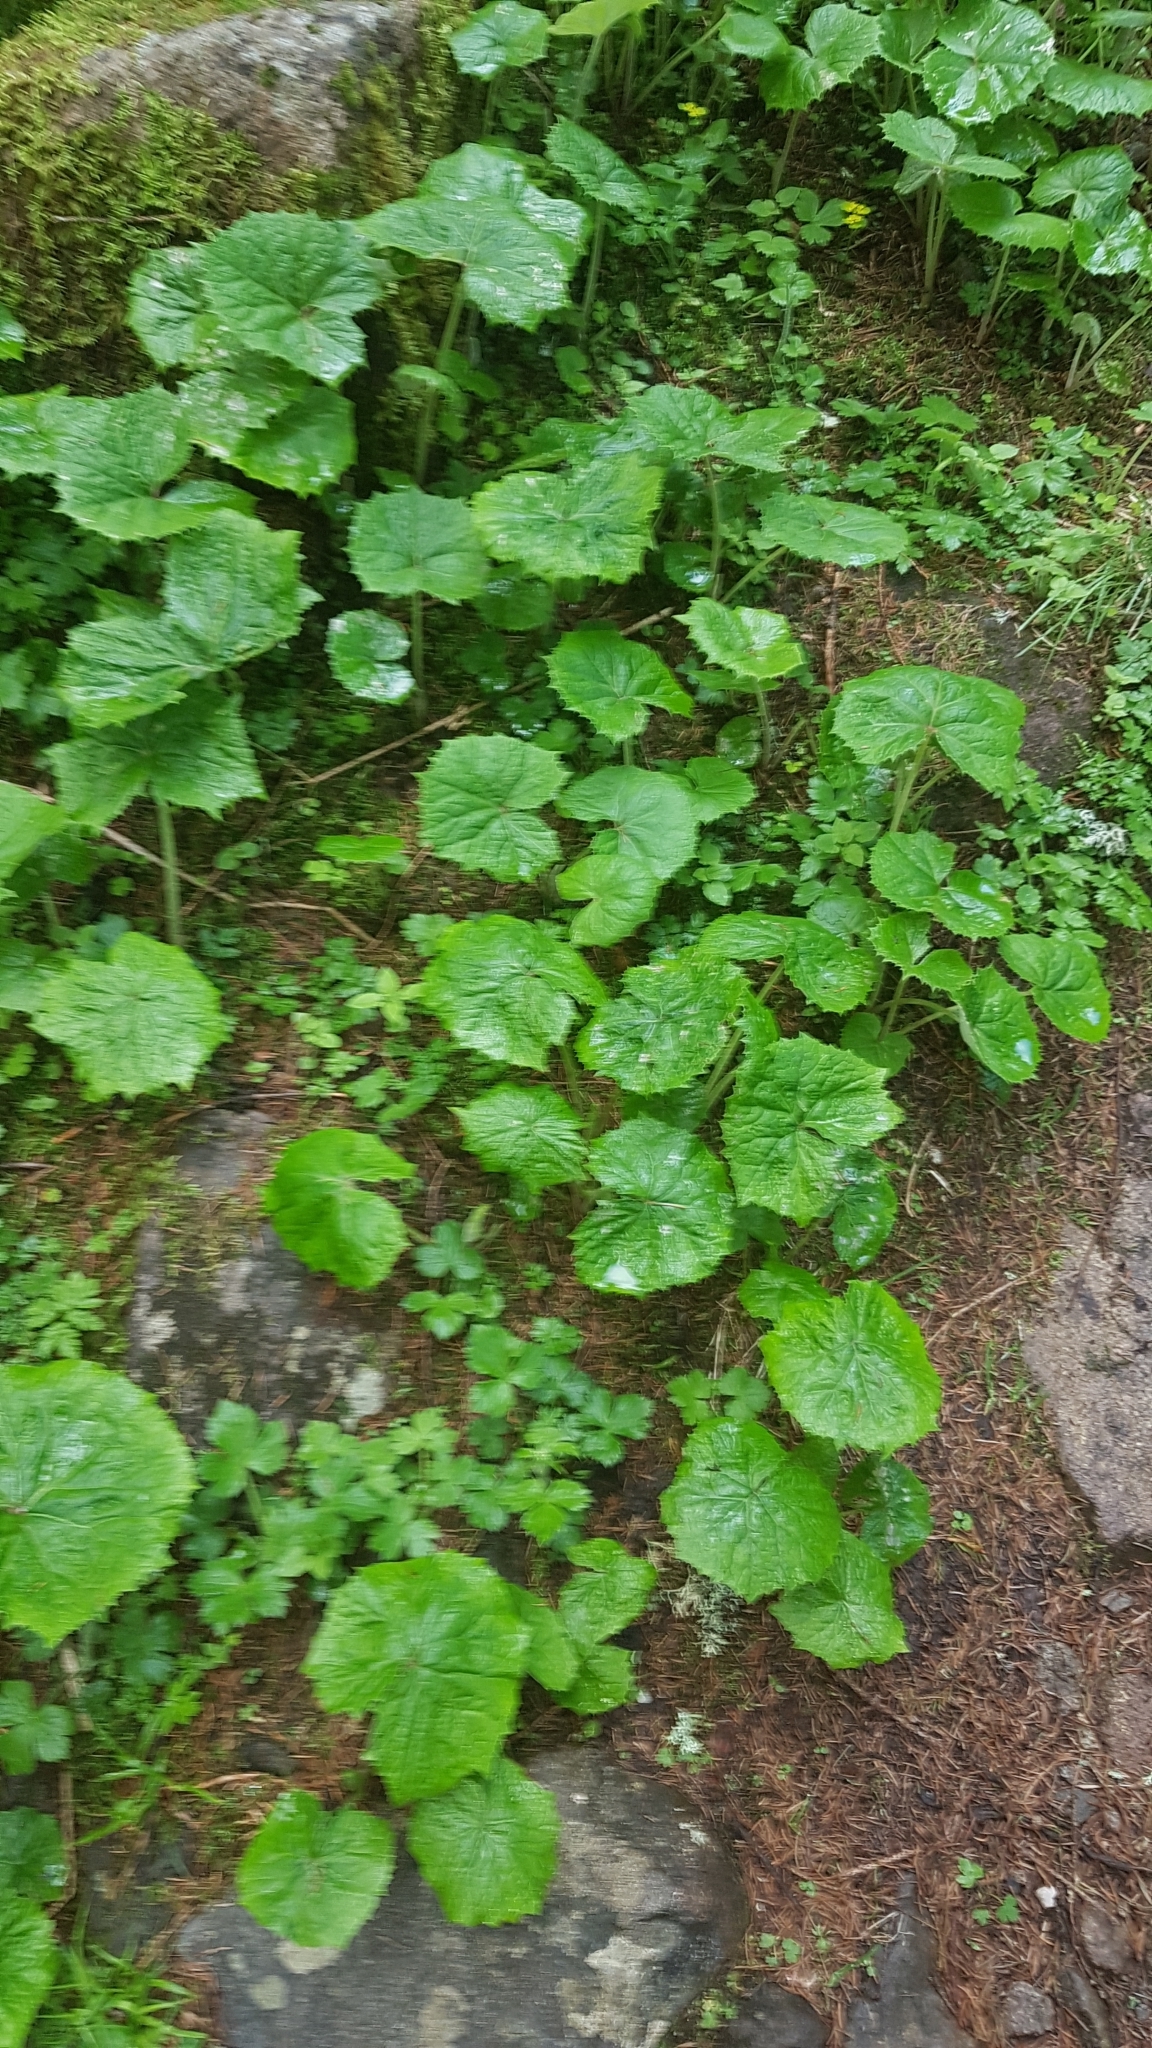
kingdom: Plantae
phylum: Tracheophyta
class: Magnoliopsida
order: Asterales
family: Asteraceae
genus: Petasites
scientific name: Petasites albus
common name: White butterbur
